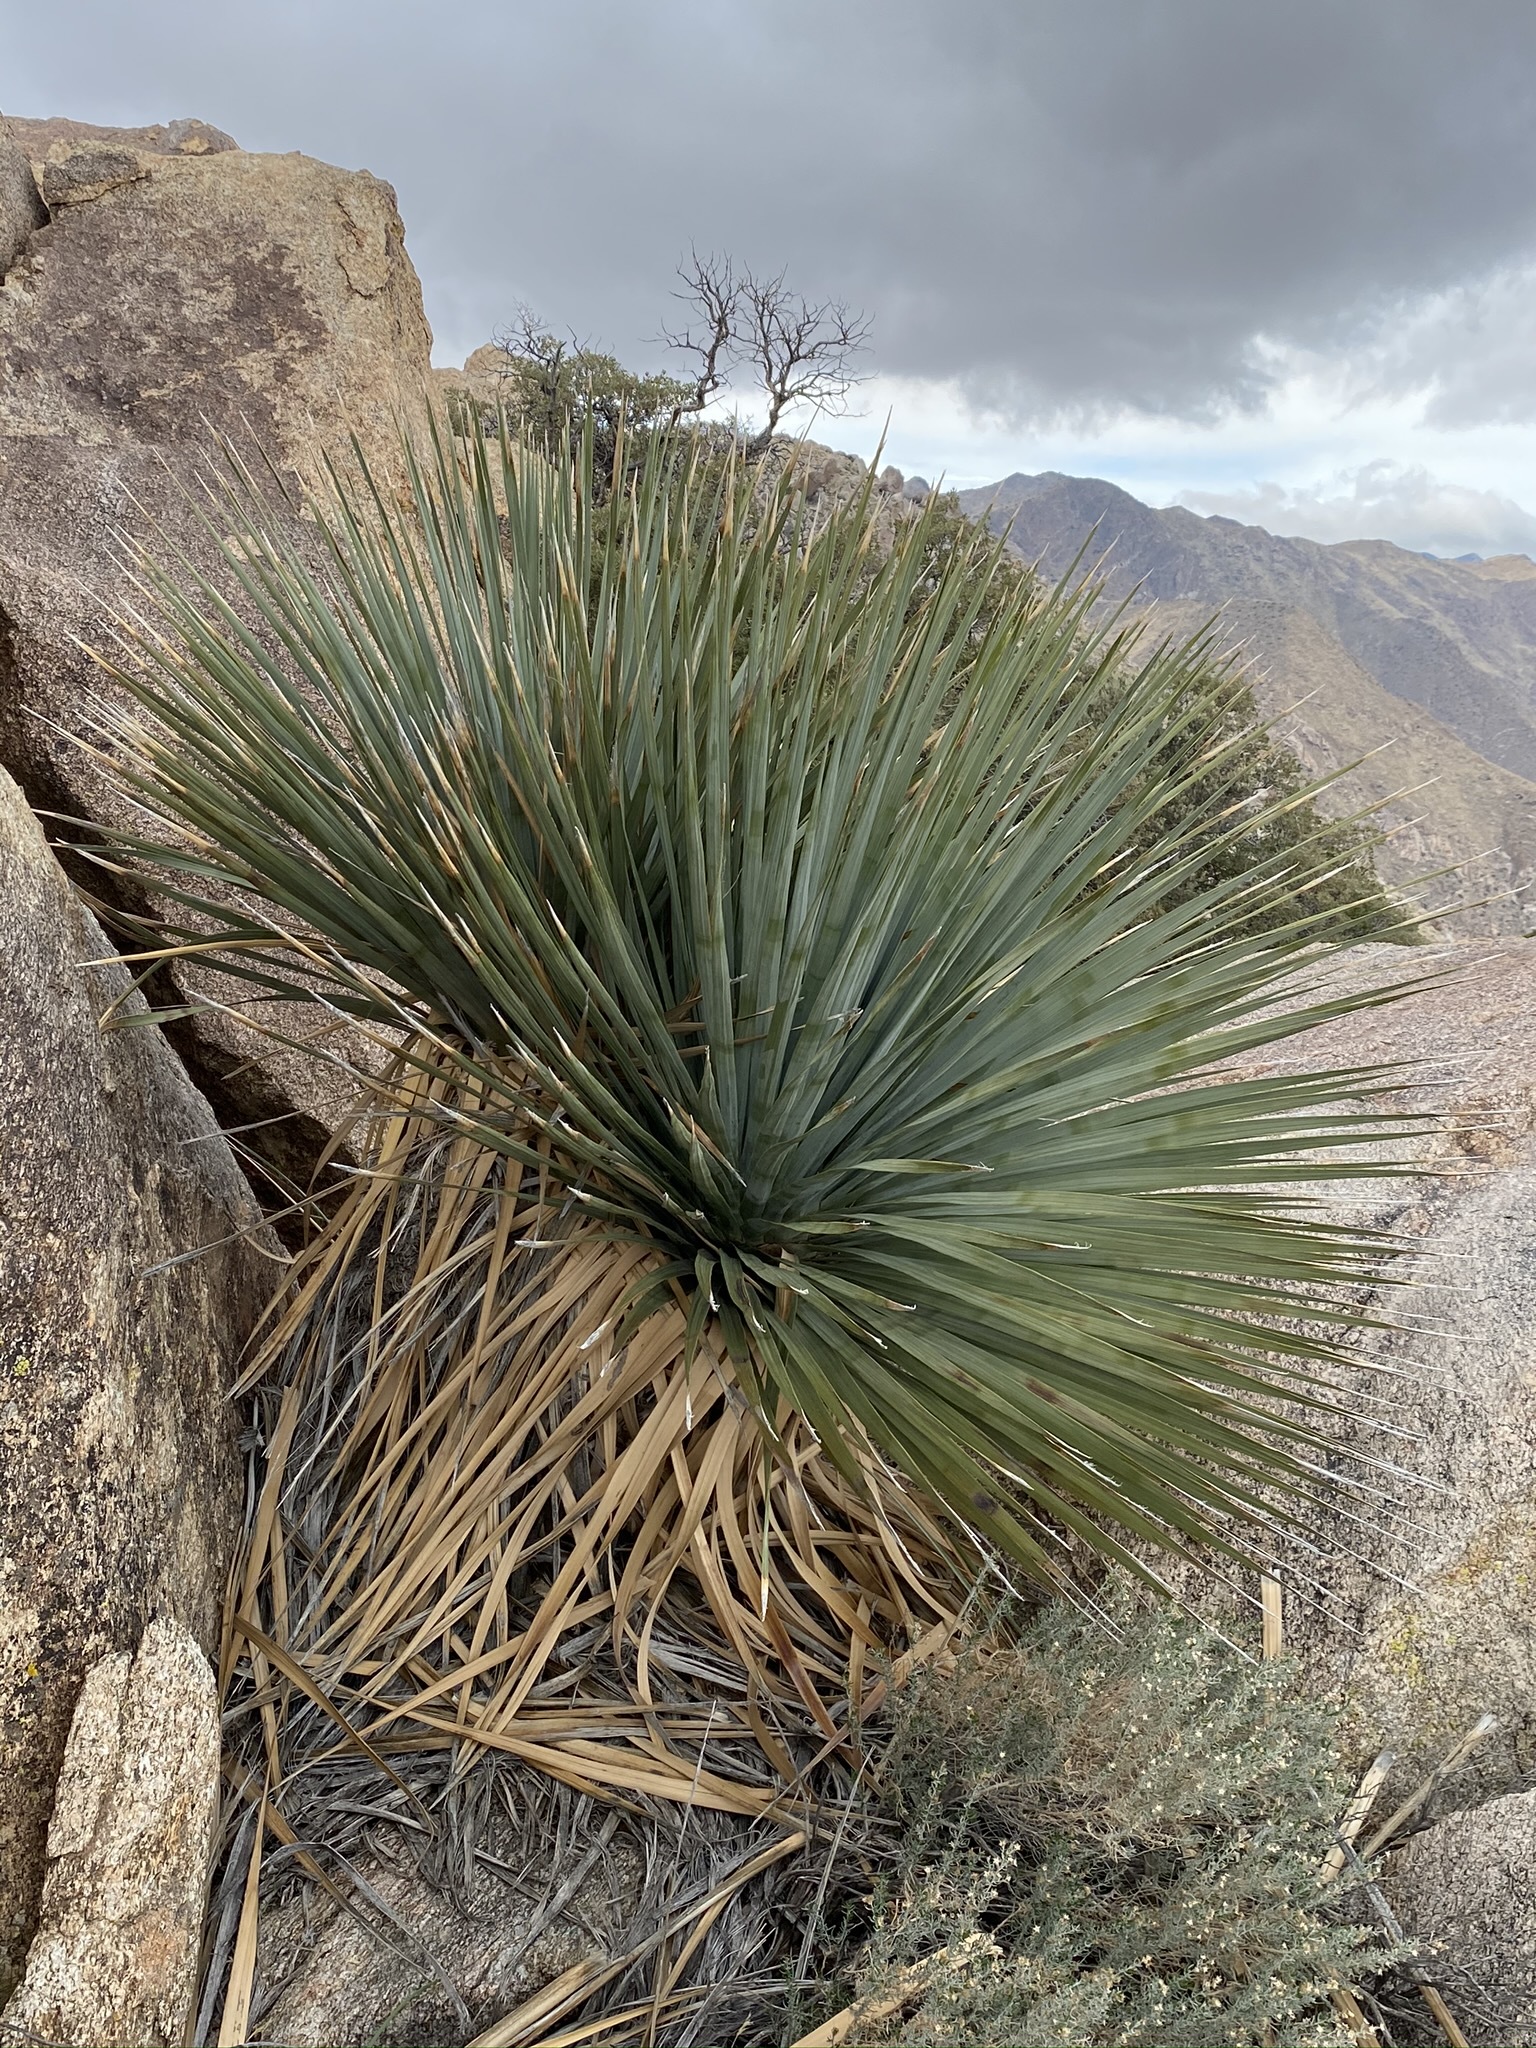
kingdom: Plantae
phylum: Tracheophyta
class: Liliopsida
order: Asparagales
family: Asparagaceae
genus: Nolina
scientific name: Nolina parryi
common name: Parry nolina
